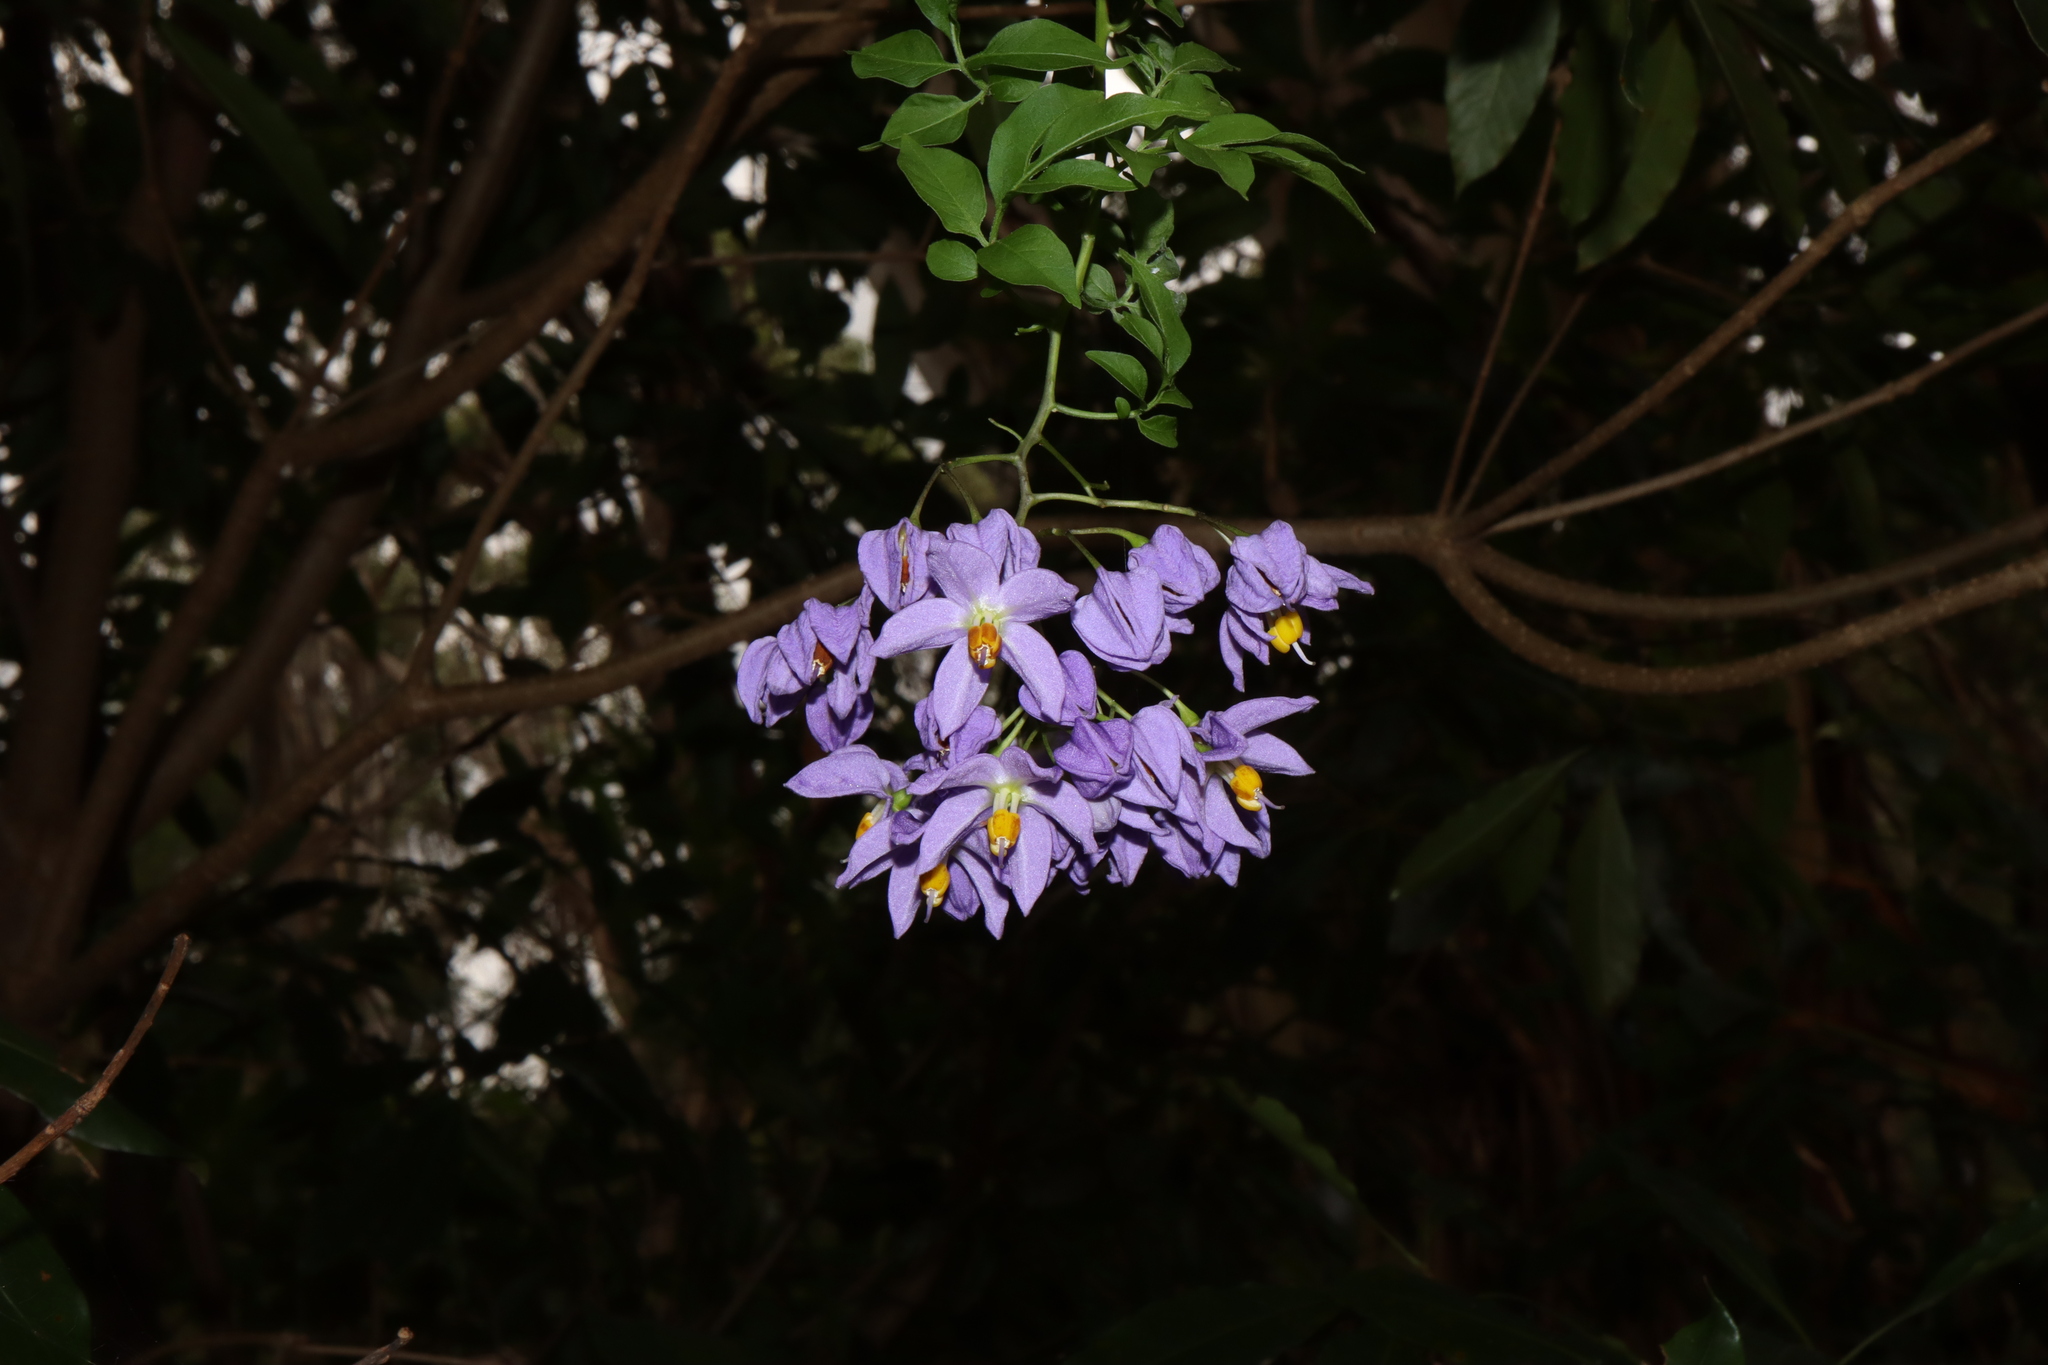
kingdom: Plantae
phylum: Tracheophyta
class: Magnoliopsida
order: Solanales
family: Solanaceae
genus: Solanum
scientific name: Solanum seaforthianum
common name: Brazilian nightshade
